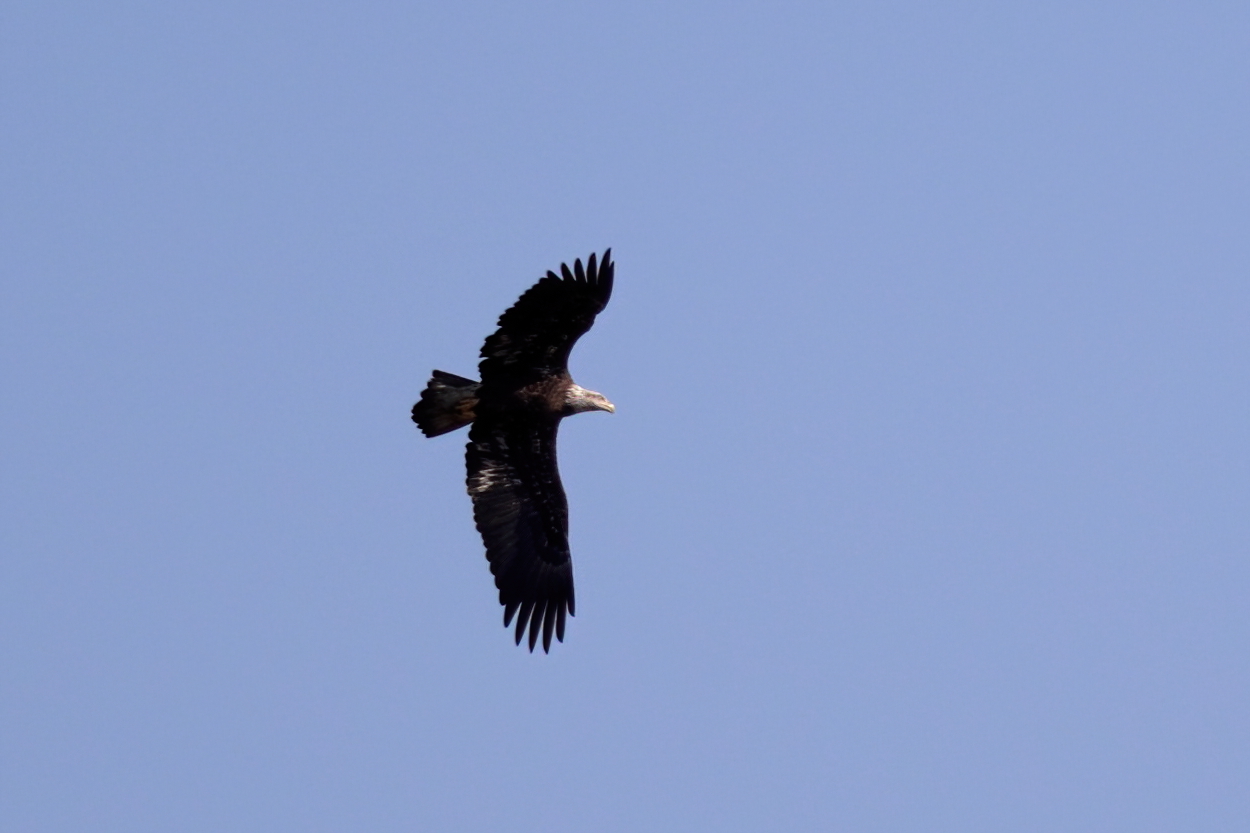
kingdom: Animalia
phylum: Chordata
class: Aves
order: Accipitriformes
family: Accipitridae
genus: Haliaeetus
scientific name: Haliaeetus leucocephalus
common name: Bald eagle
